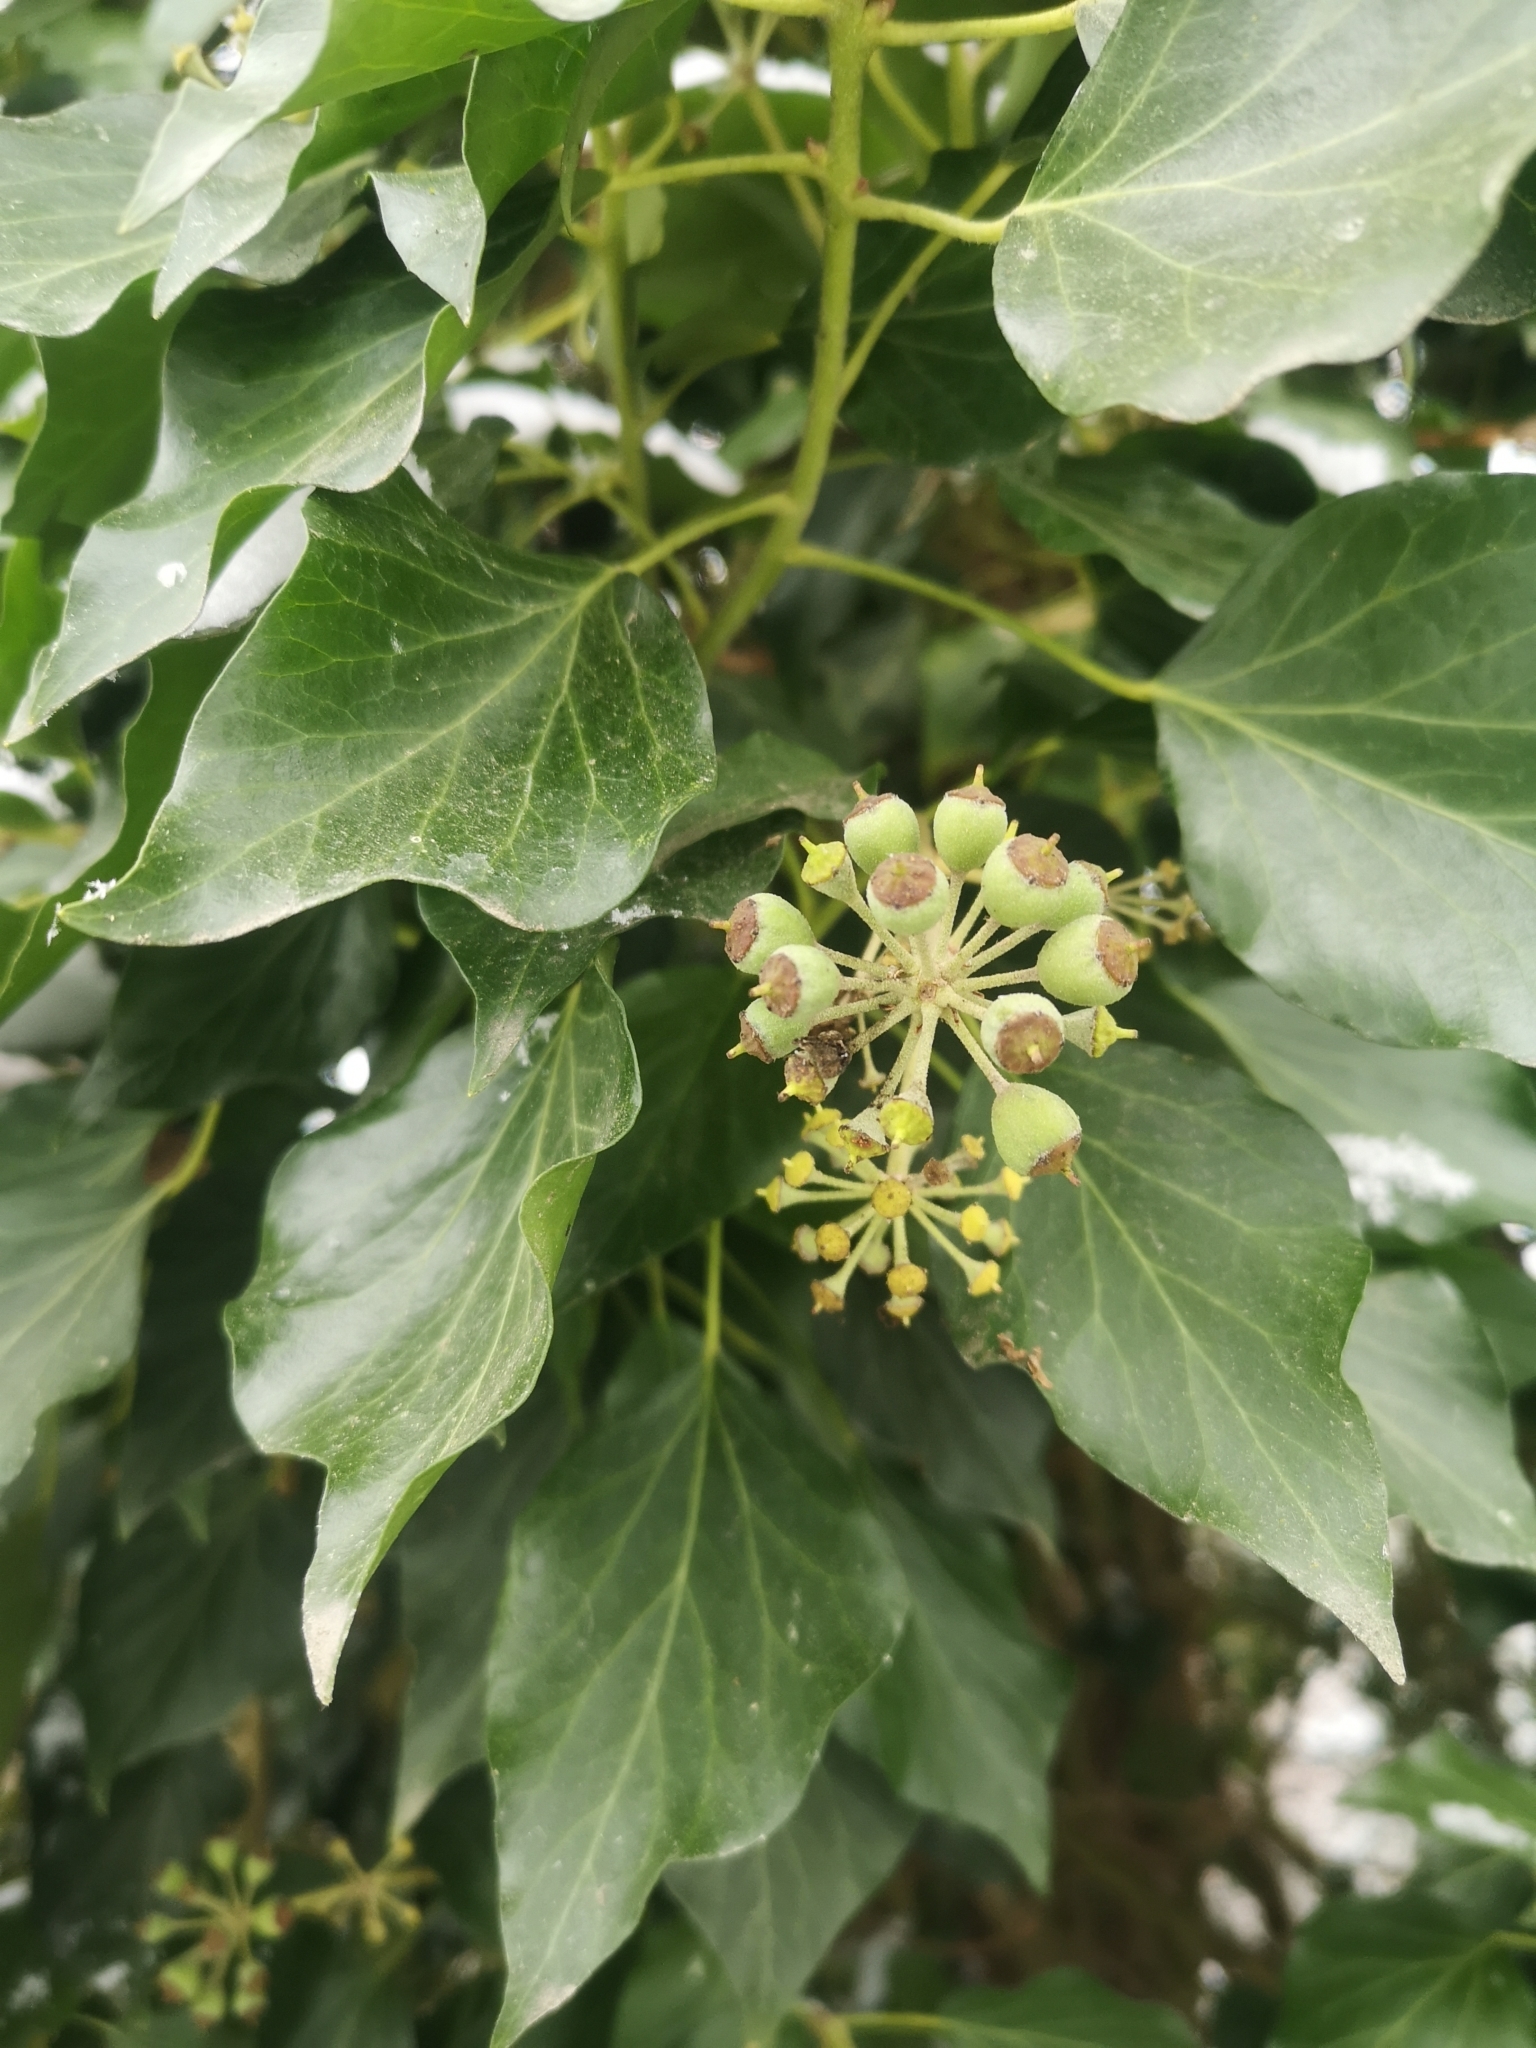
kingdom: Plantae
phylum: Tracheophyta
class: Magnoliopsida
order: Apiales
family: Araliaceae
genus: Hedera
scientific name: Hedera helix
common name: Ivy
